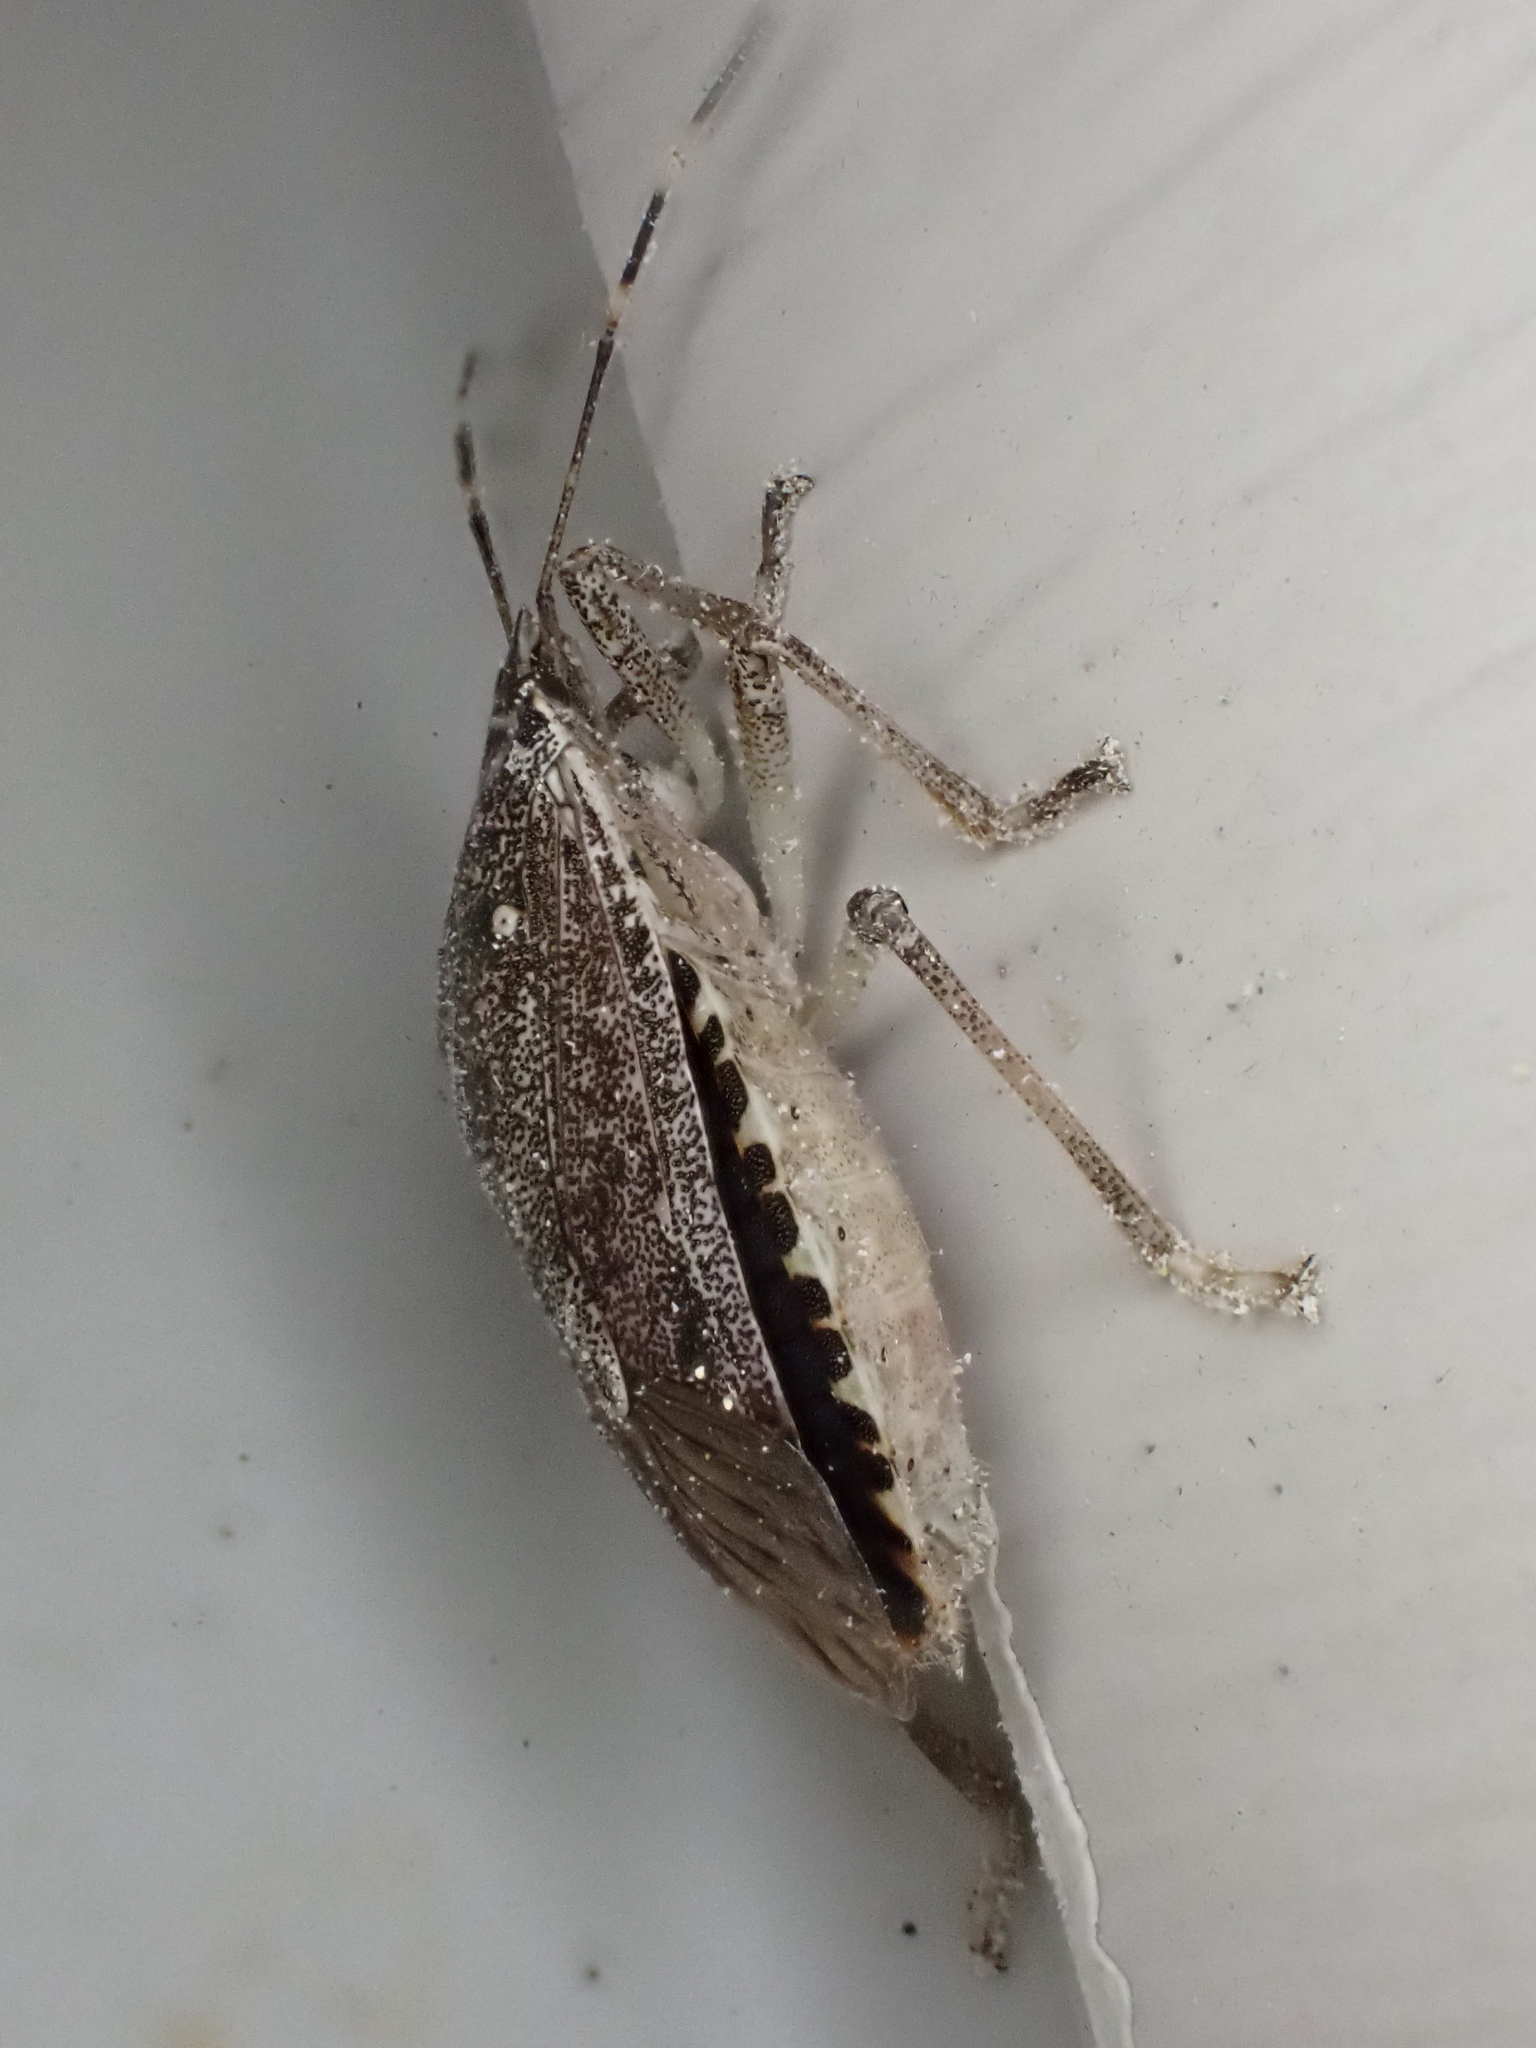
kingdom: Animalia
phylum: Arthropoda
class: Insecta
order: Hemiptera
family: Pentatomidae
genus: Halyomorpha
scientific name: Halyomorpha halys
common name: Brown marmorated stink bug
